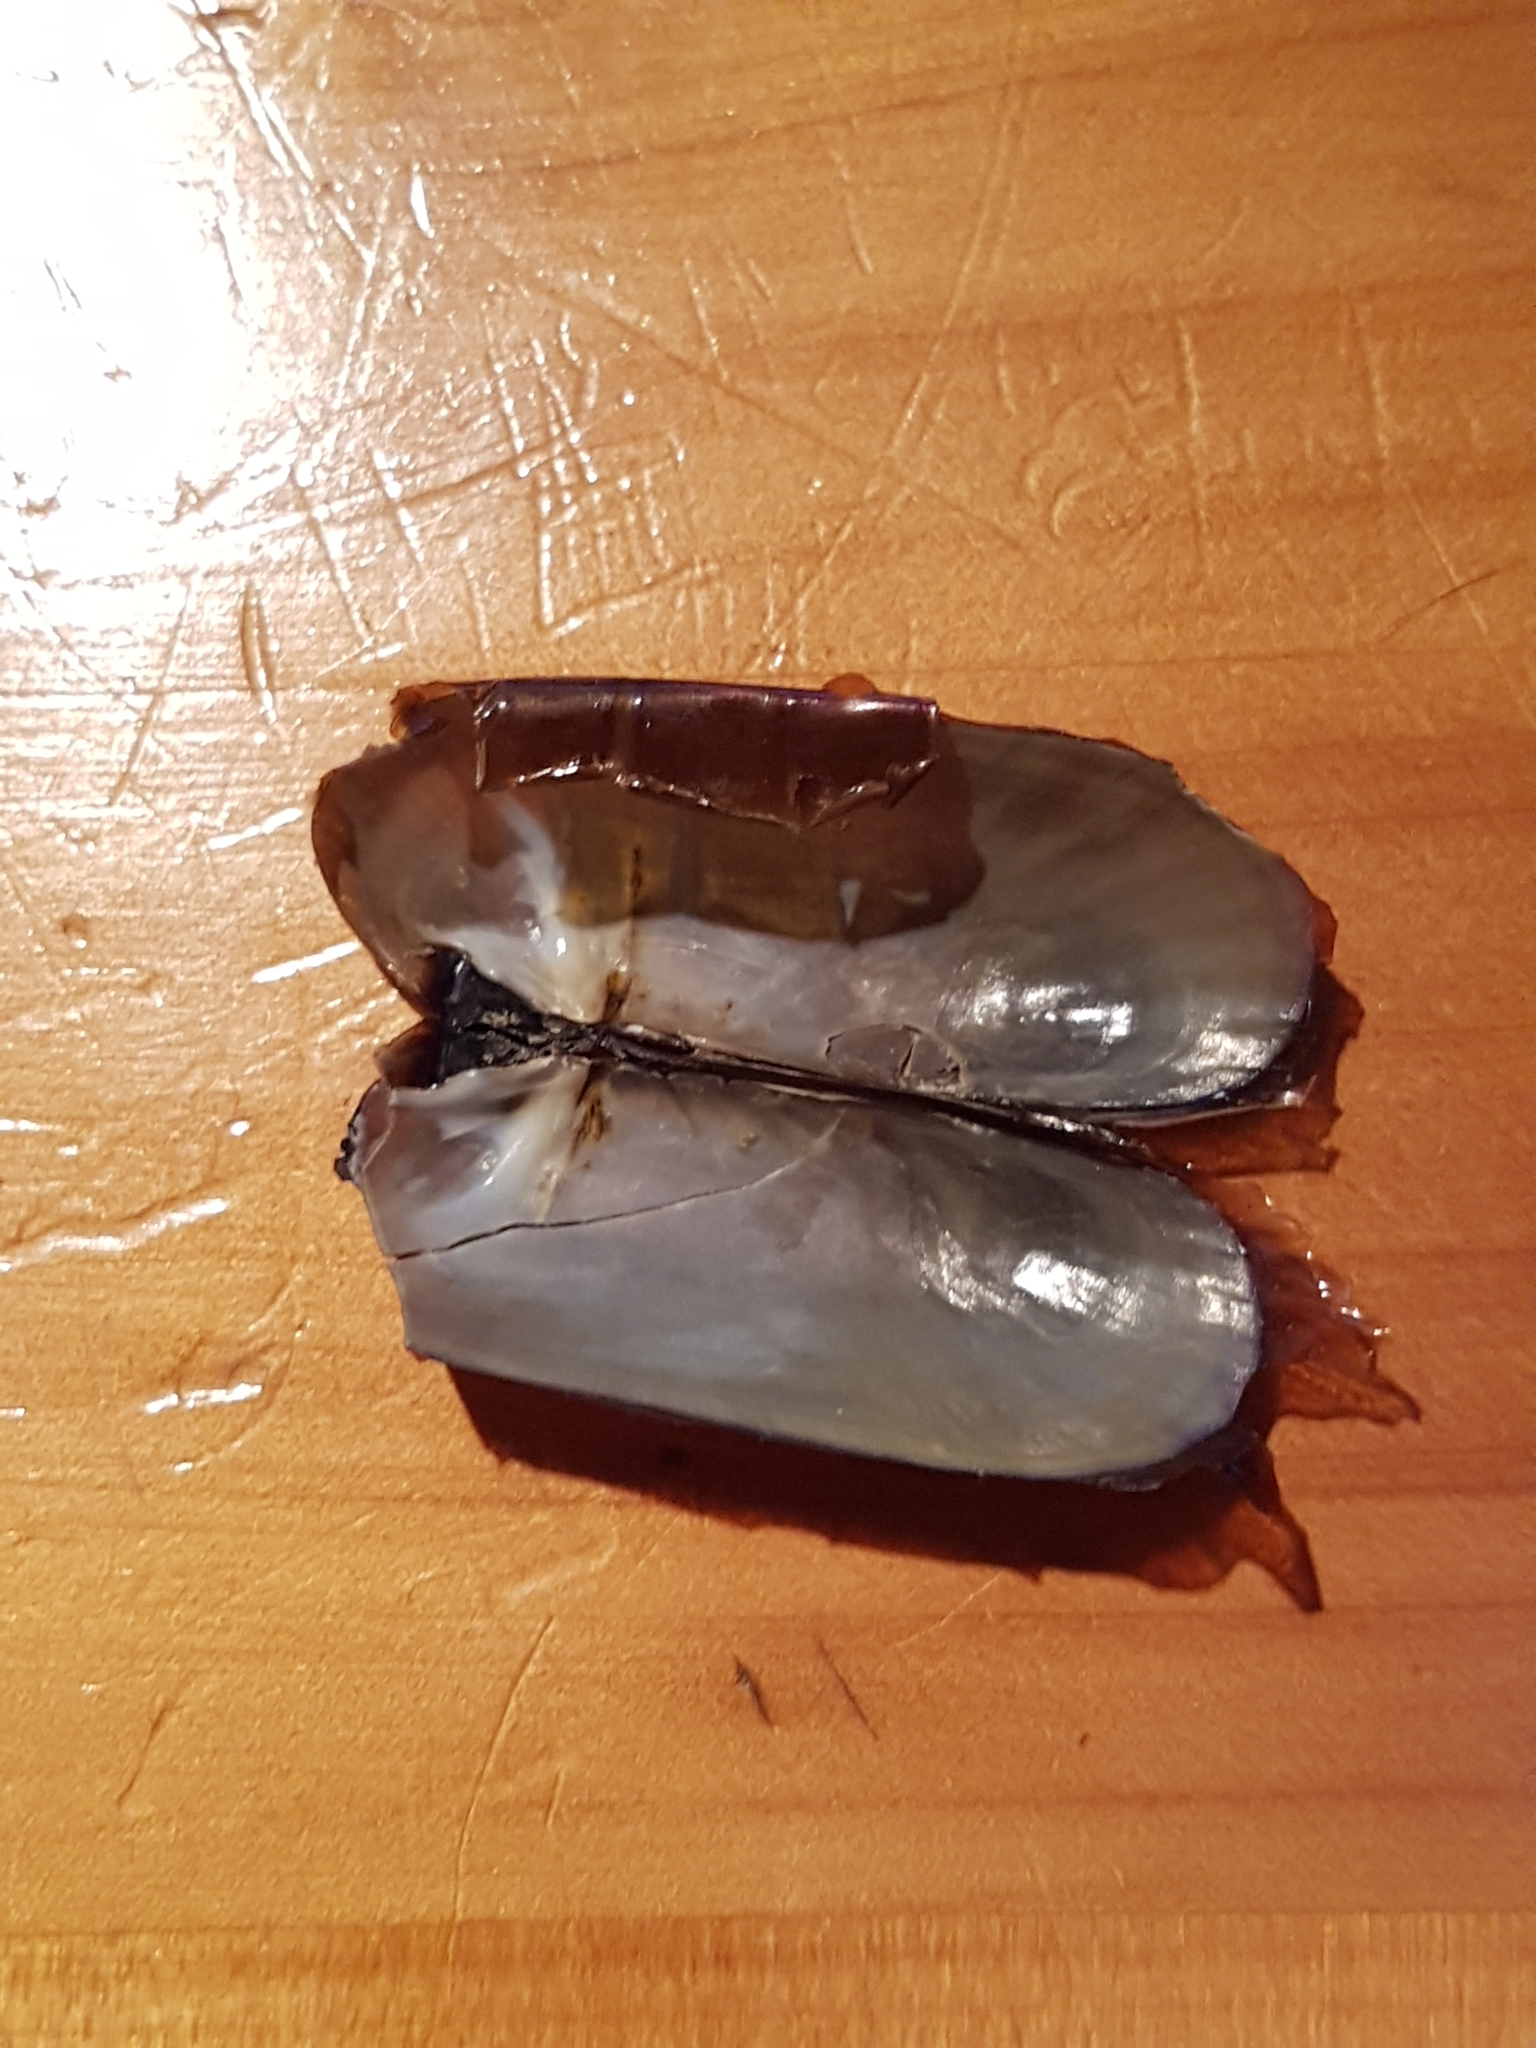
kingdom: Animalia
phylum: Mollusca
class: Bivalvia
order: Solemyida
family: Solemyidae
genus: Solemya
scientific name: Solemya parkinsonii
